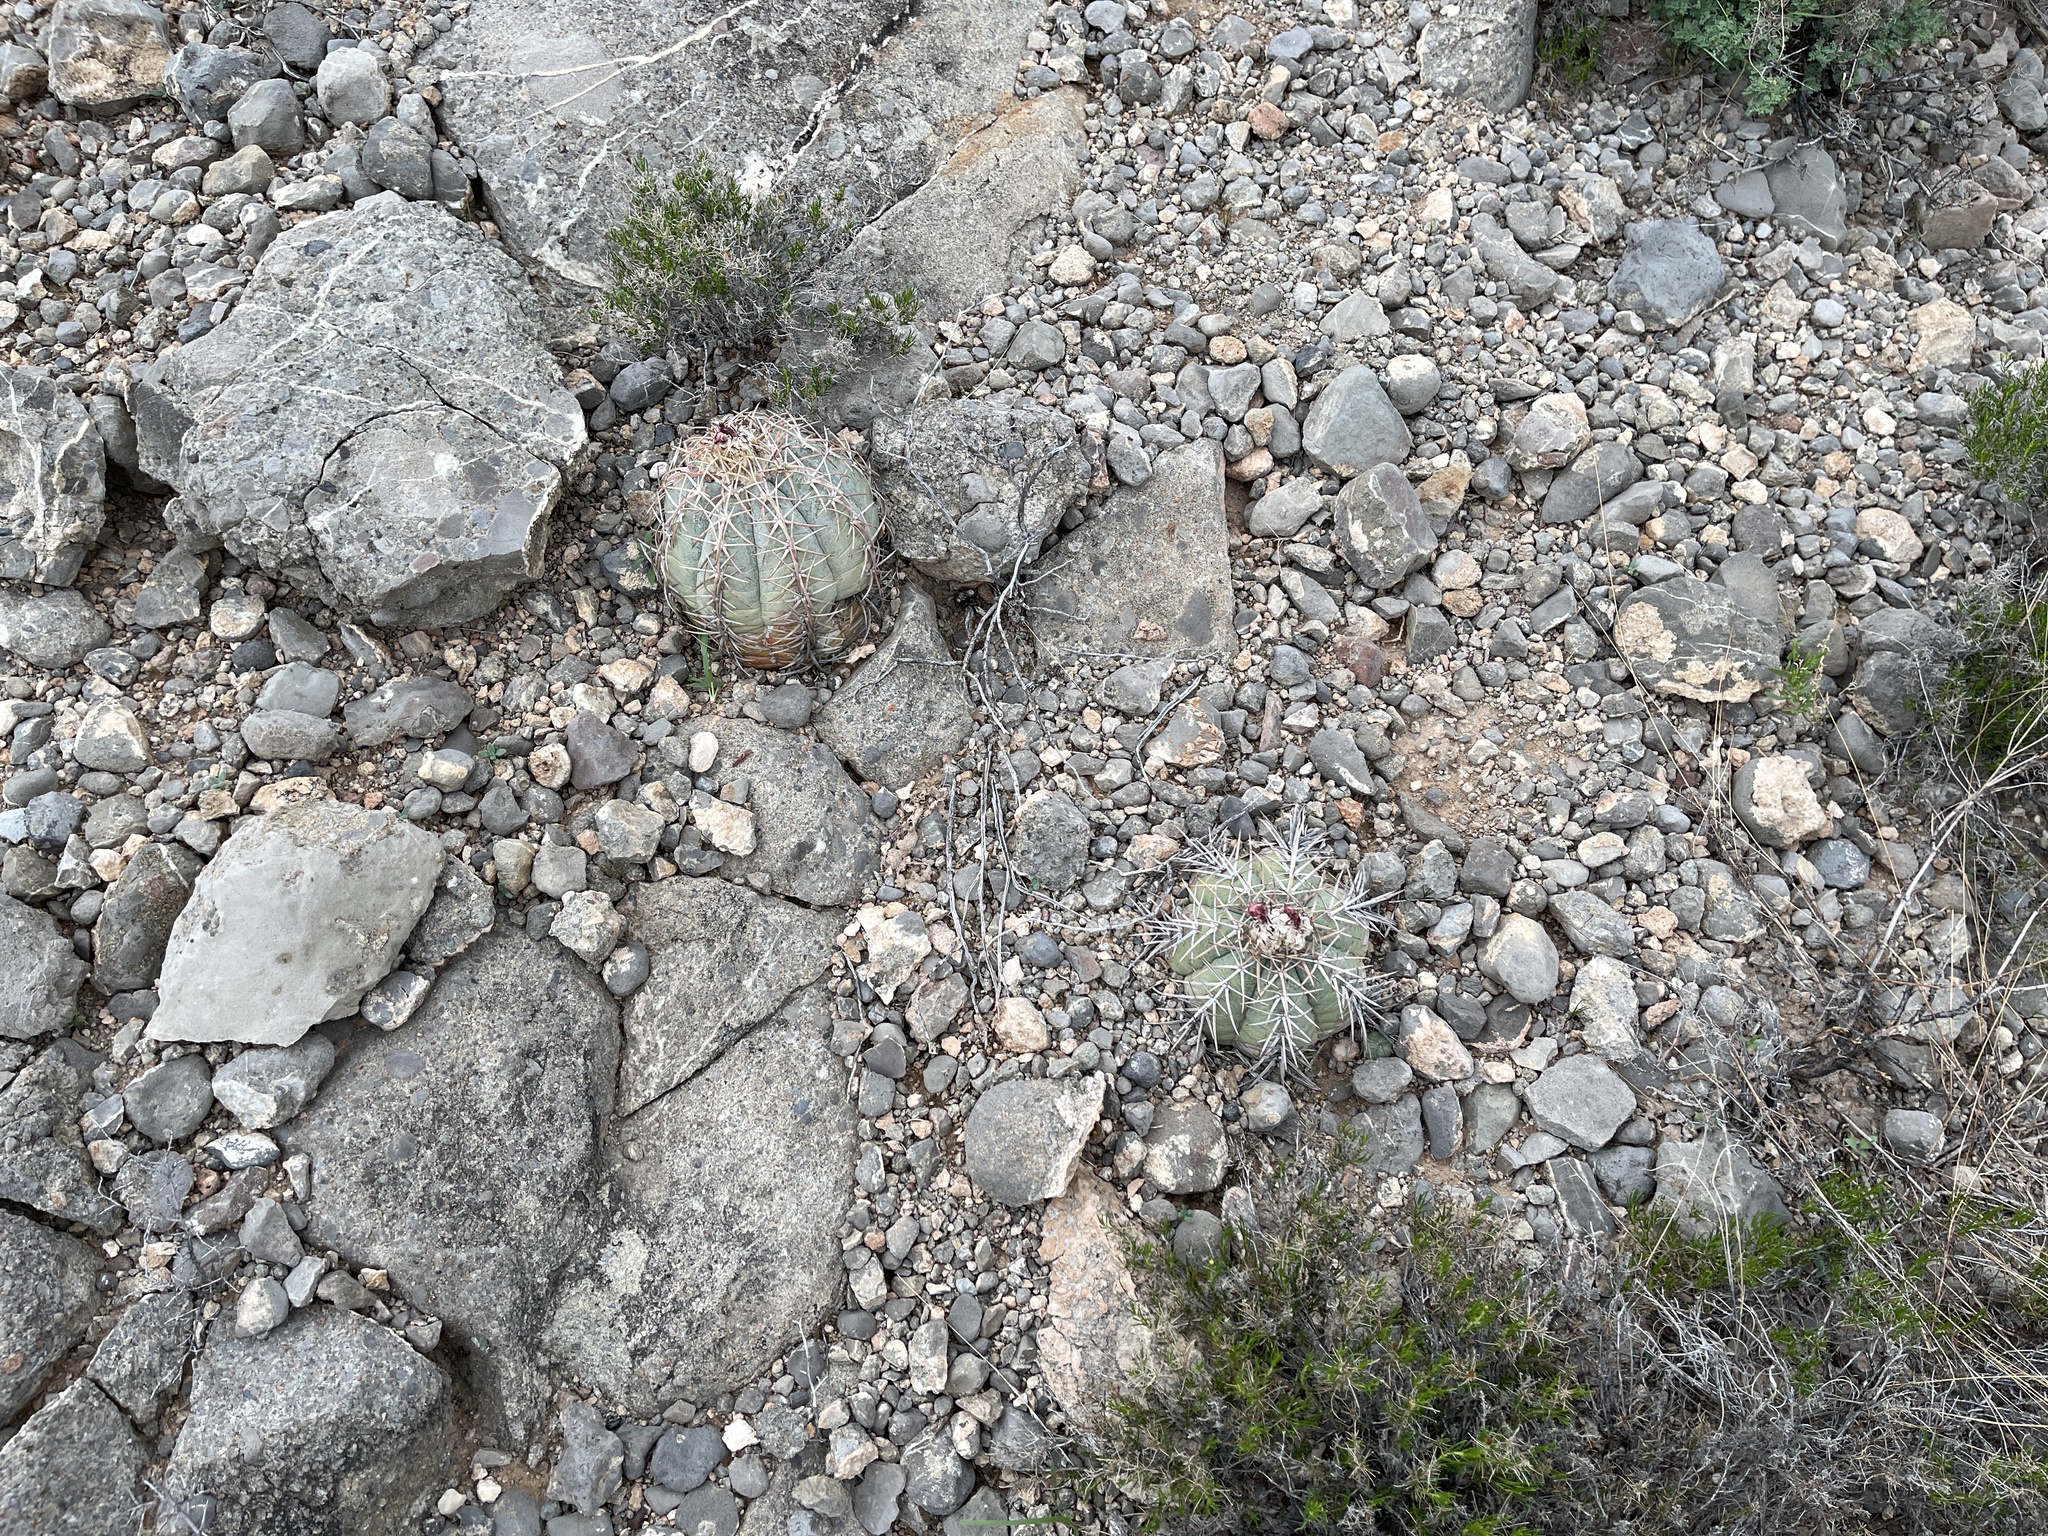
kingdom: Plantae
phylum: Tracheophyta
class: Magnoliopsida
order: Caryophyllales
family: Cactaceae
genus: Echinocactus
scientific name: Echinocactus horizonthalonius
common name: Devilshead
